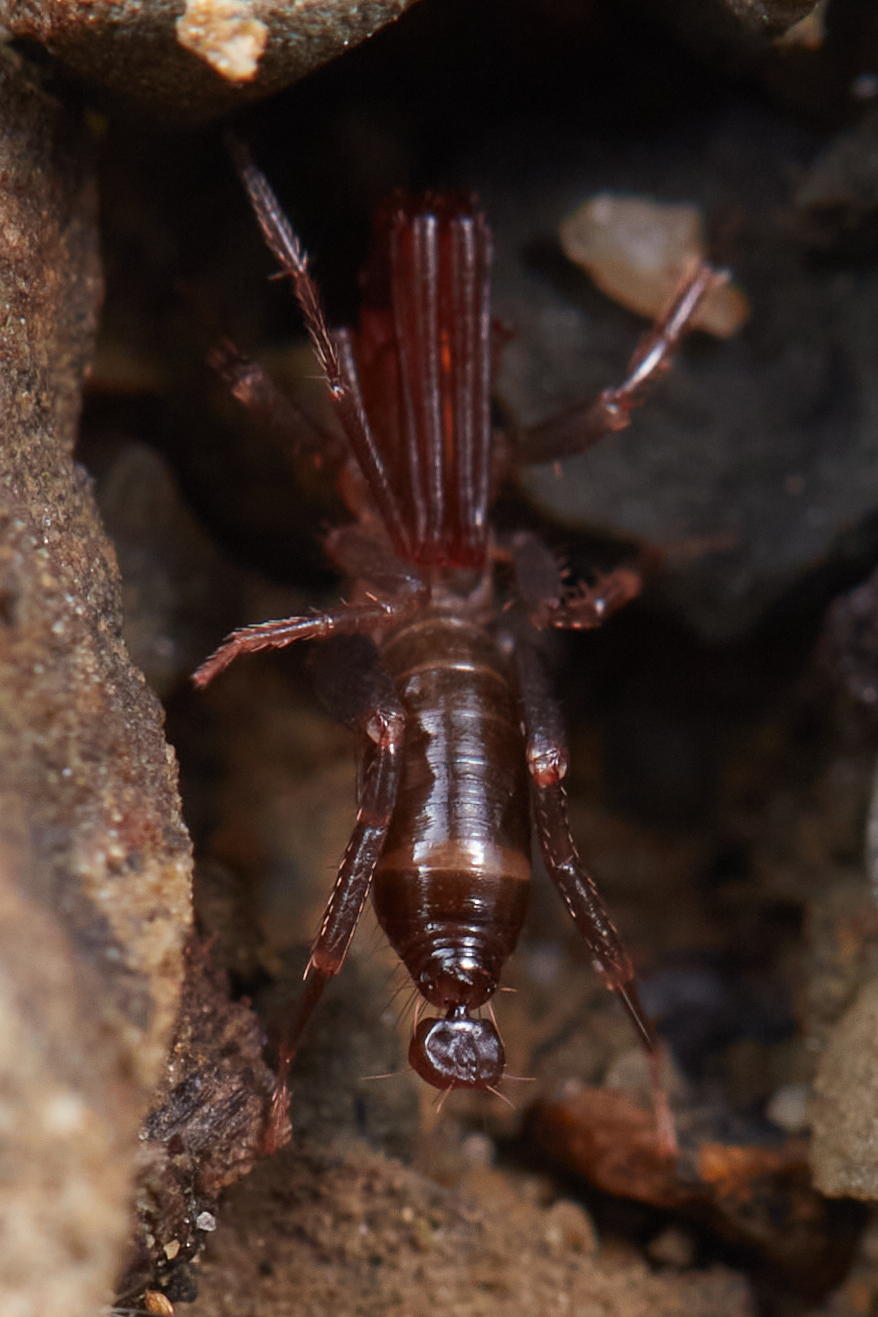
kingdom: Animalia
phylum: Arthropoda
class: Arachnida
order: Schizomida
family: Hubbardiidae
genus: Hubbardia
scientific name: Hubbardia idria
